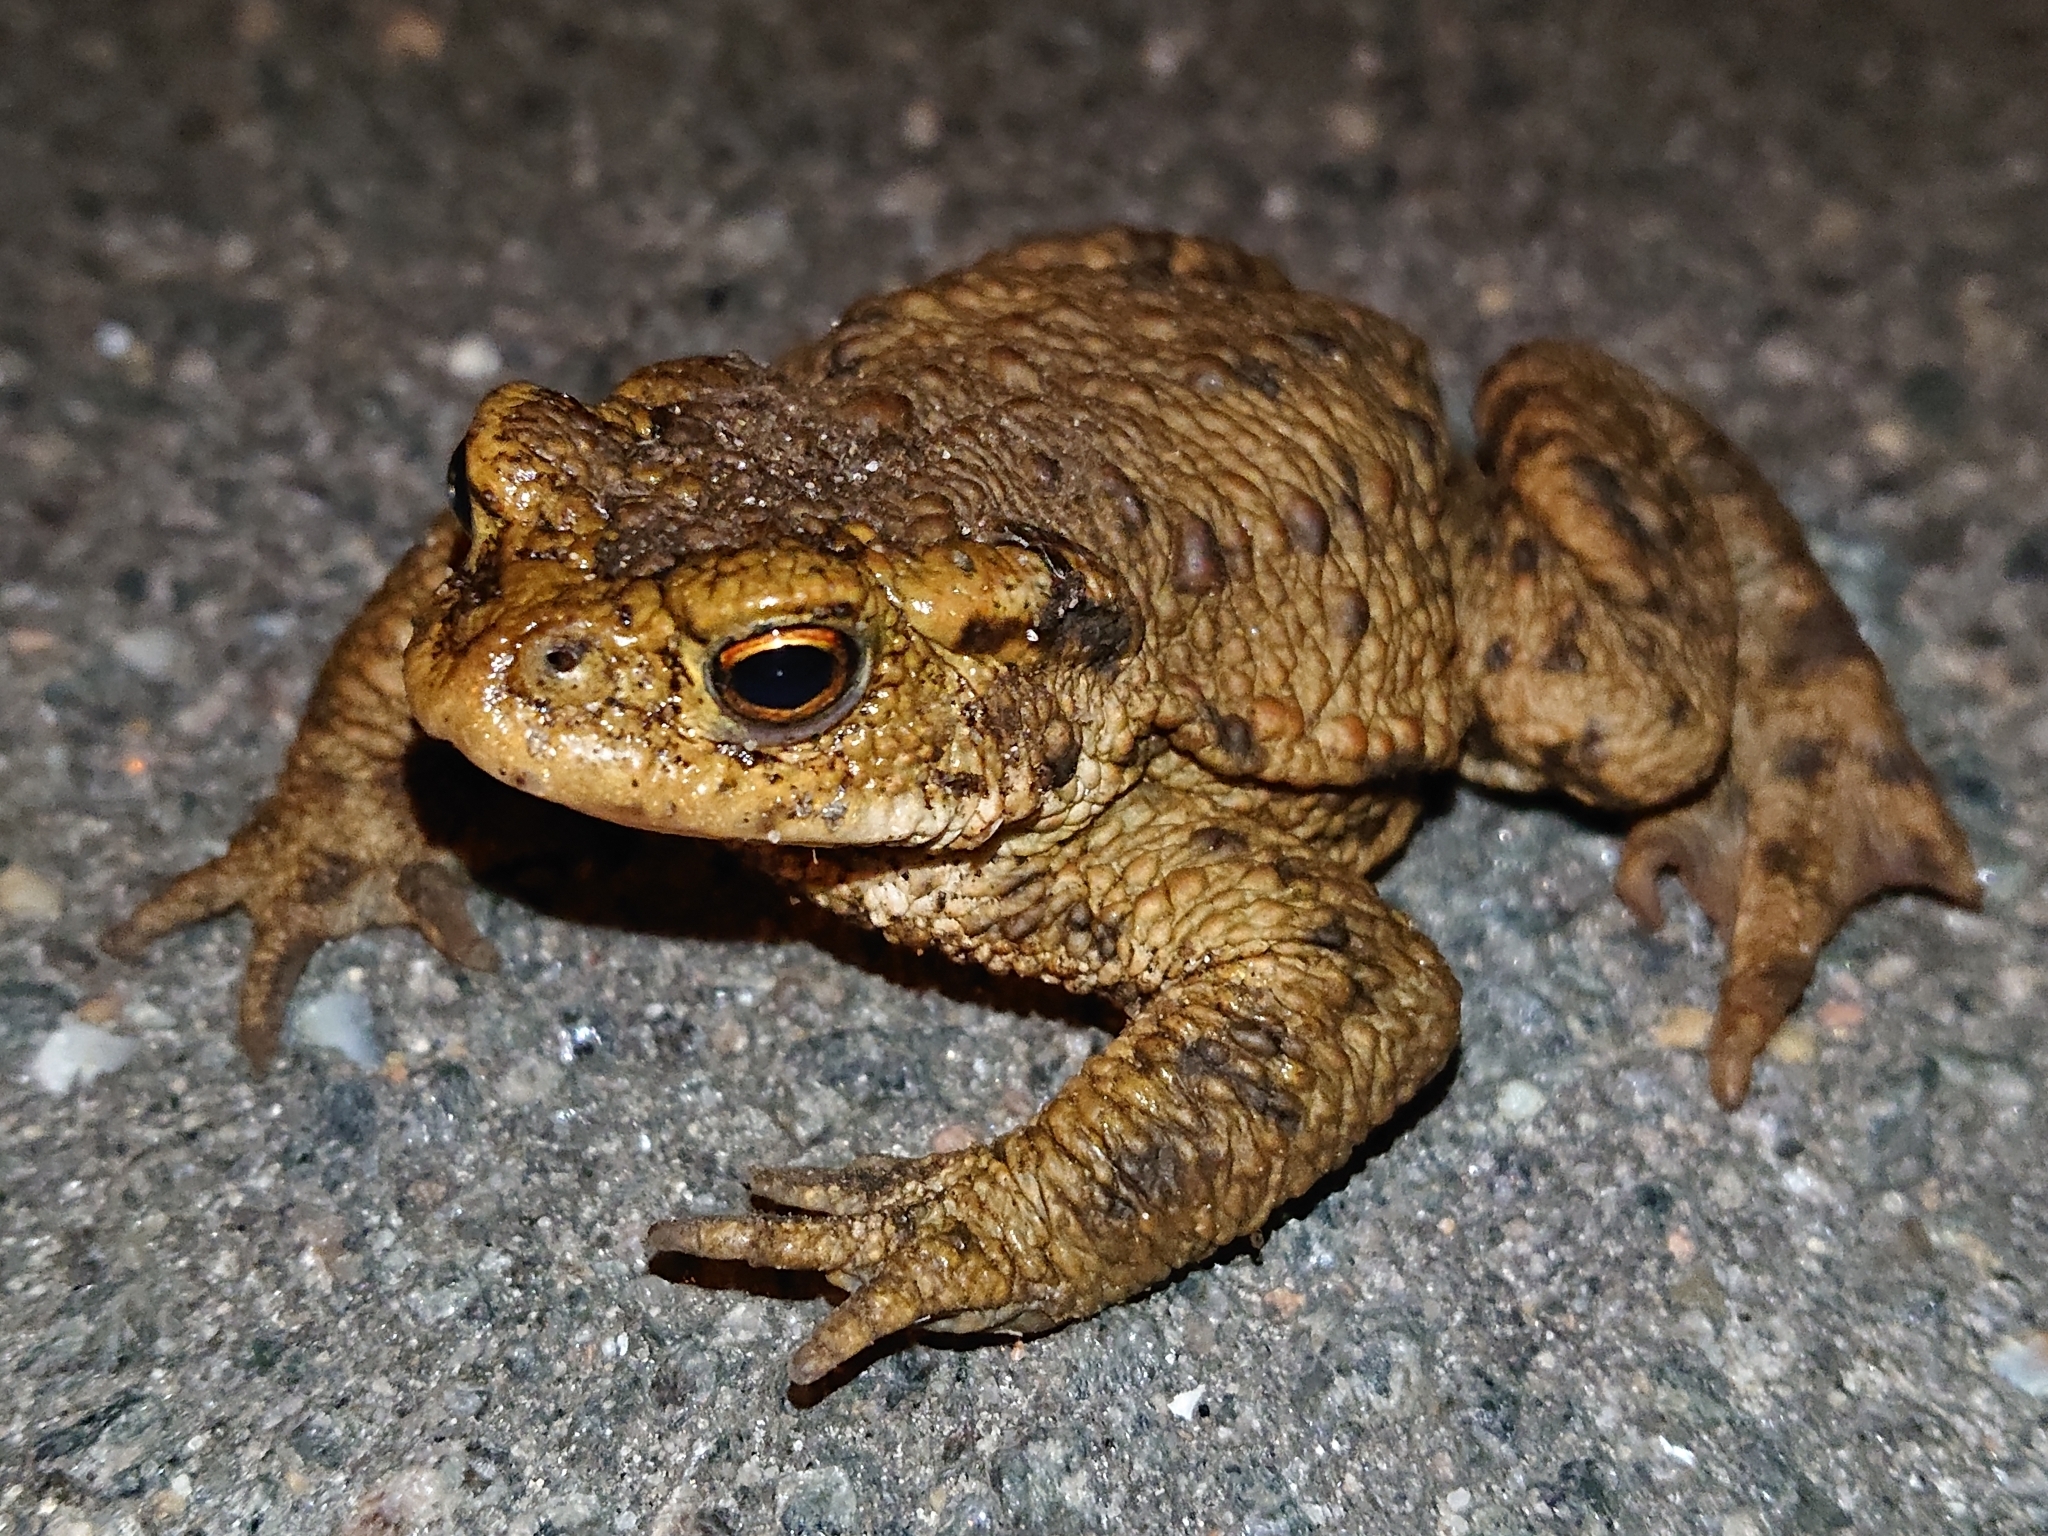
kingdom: Animalia
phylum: Chordata
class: Amphibia
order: Anura
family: Bufonidae
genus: Bufo
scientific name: Bufo bufo
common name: Common toad
